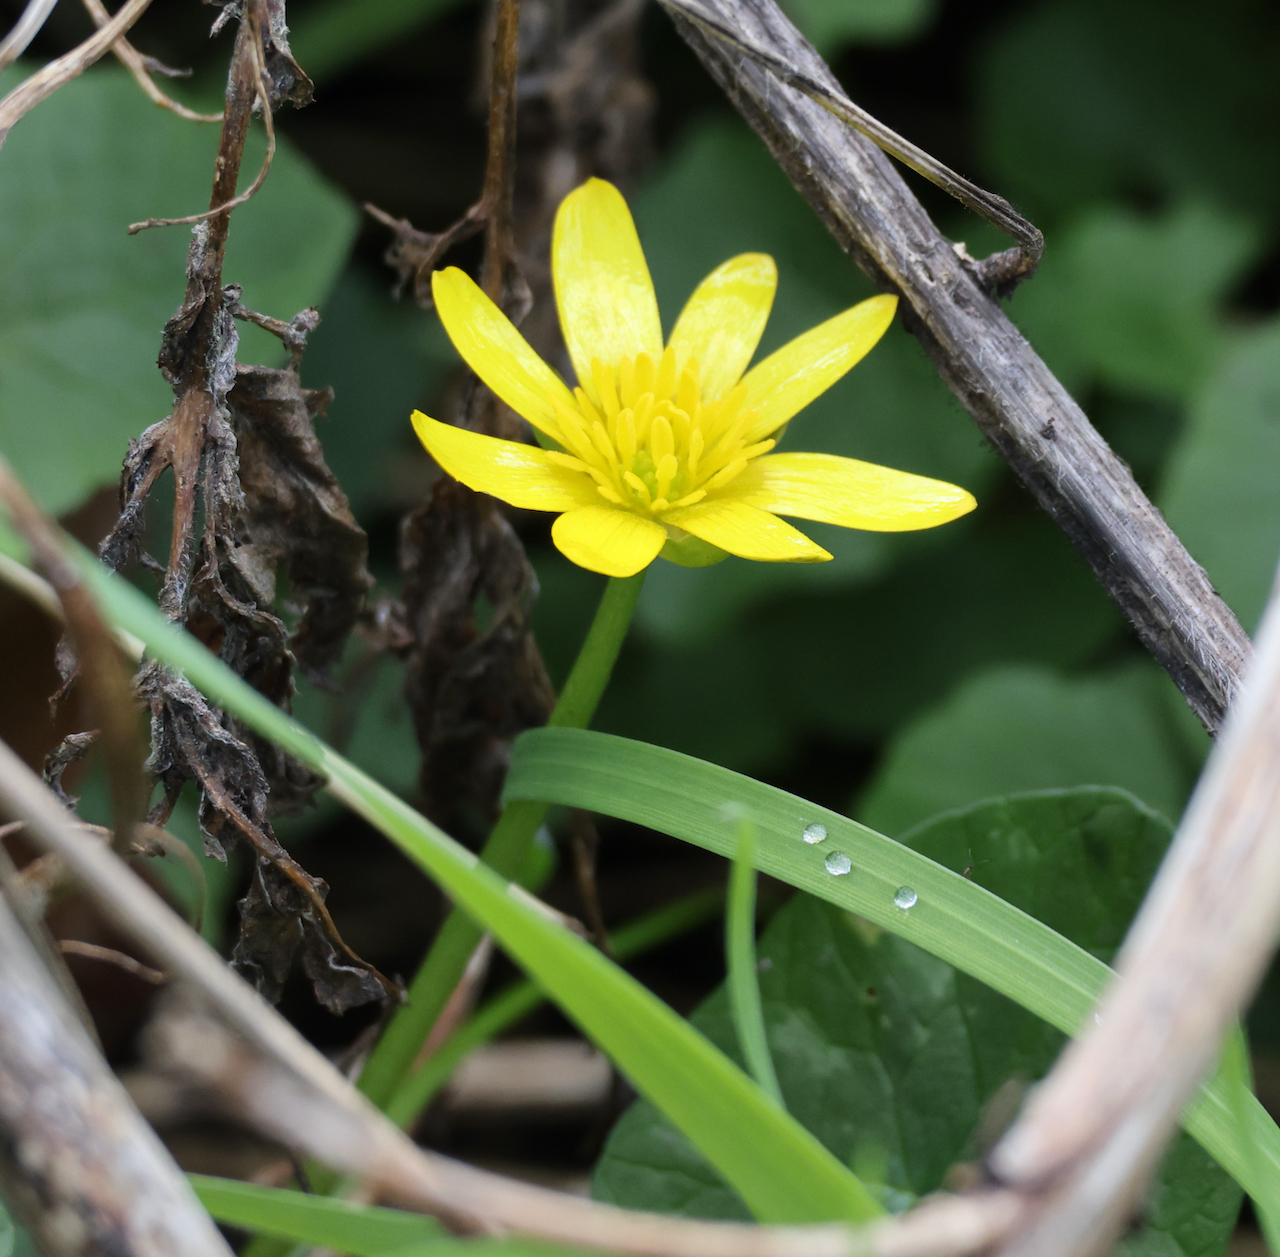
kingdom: Plantae
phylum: Tracheophyta
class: Magnoliopsida
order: Ranunculales
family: Ranunculaceae
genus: Ficaria
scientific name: Ficaria verna
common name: Lesser celandine
